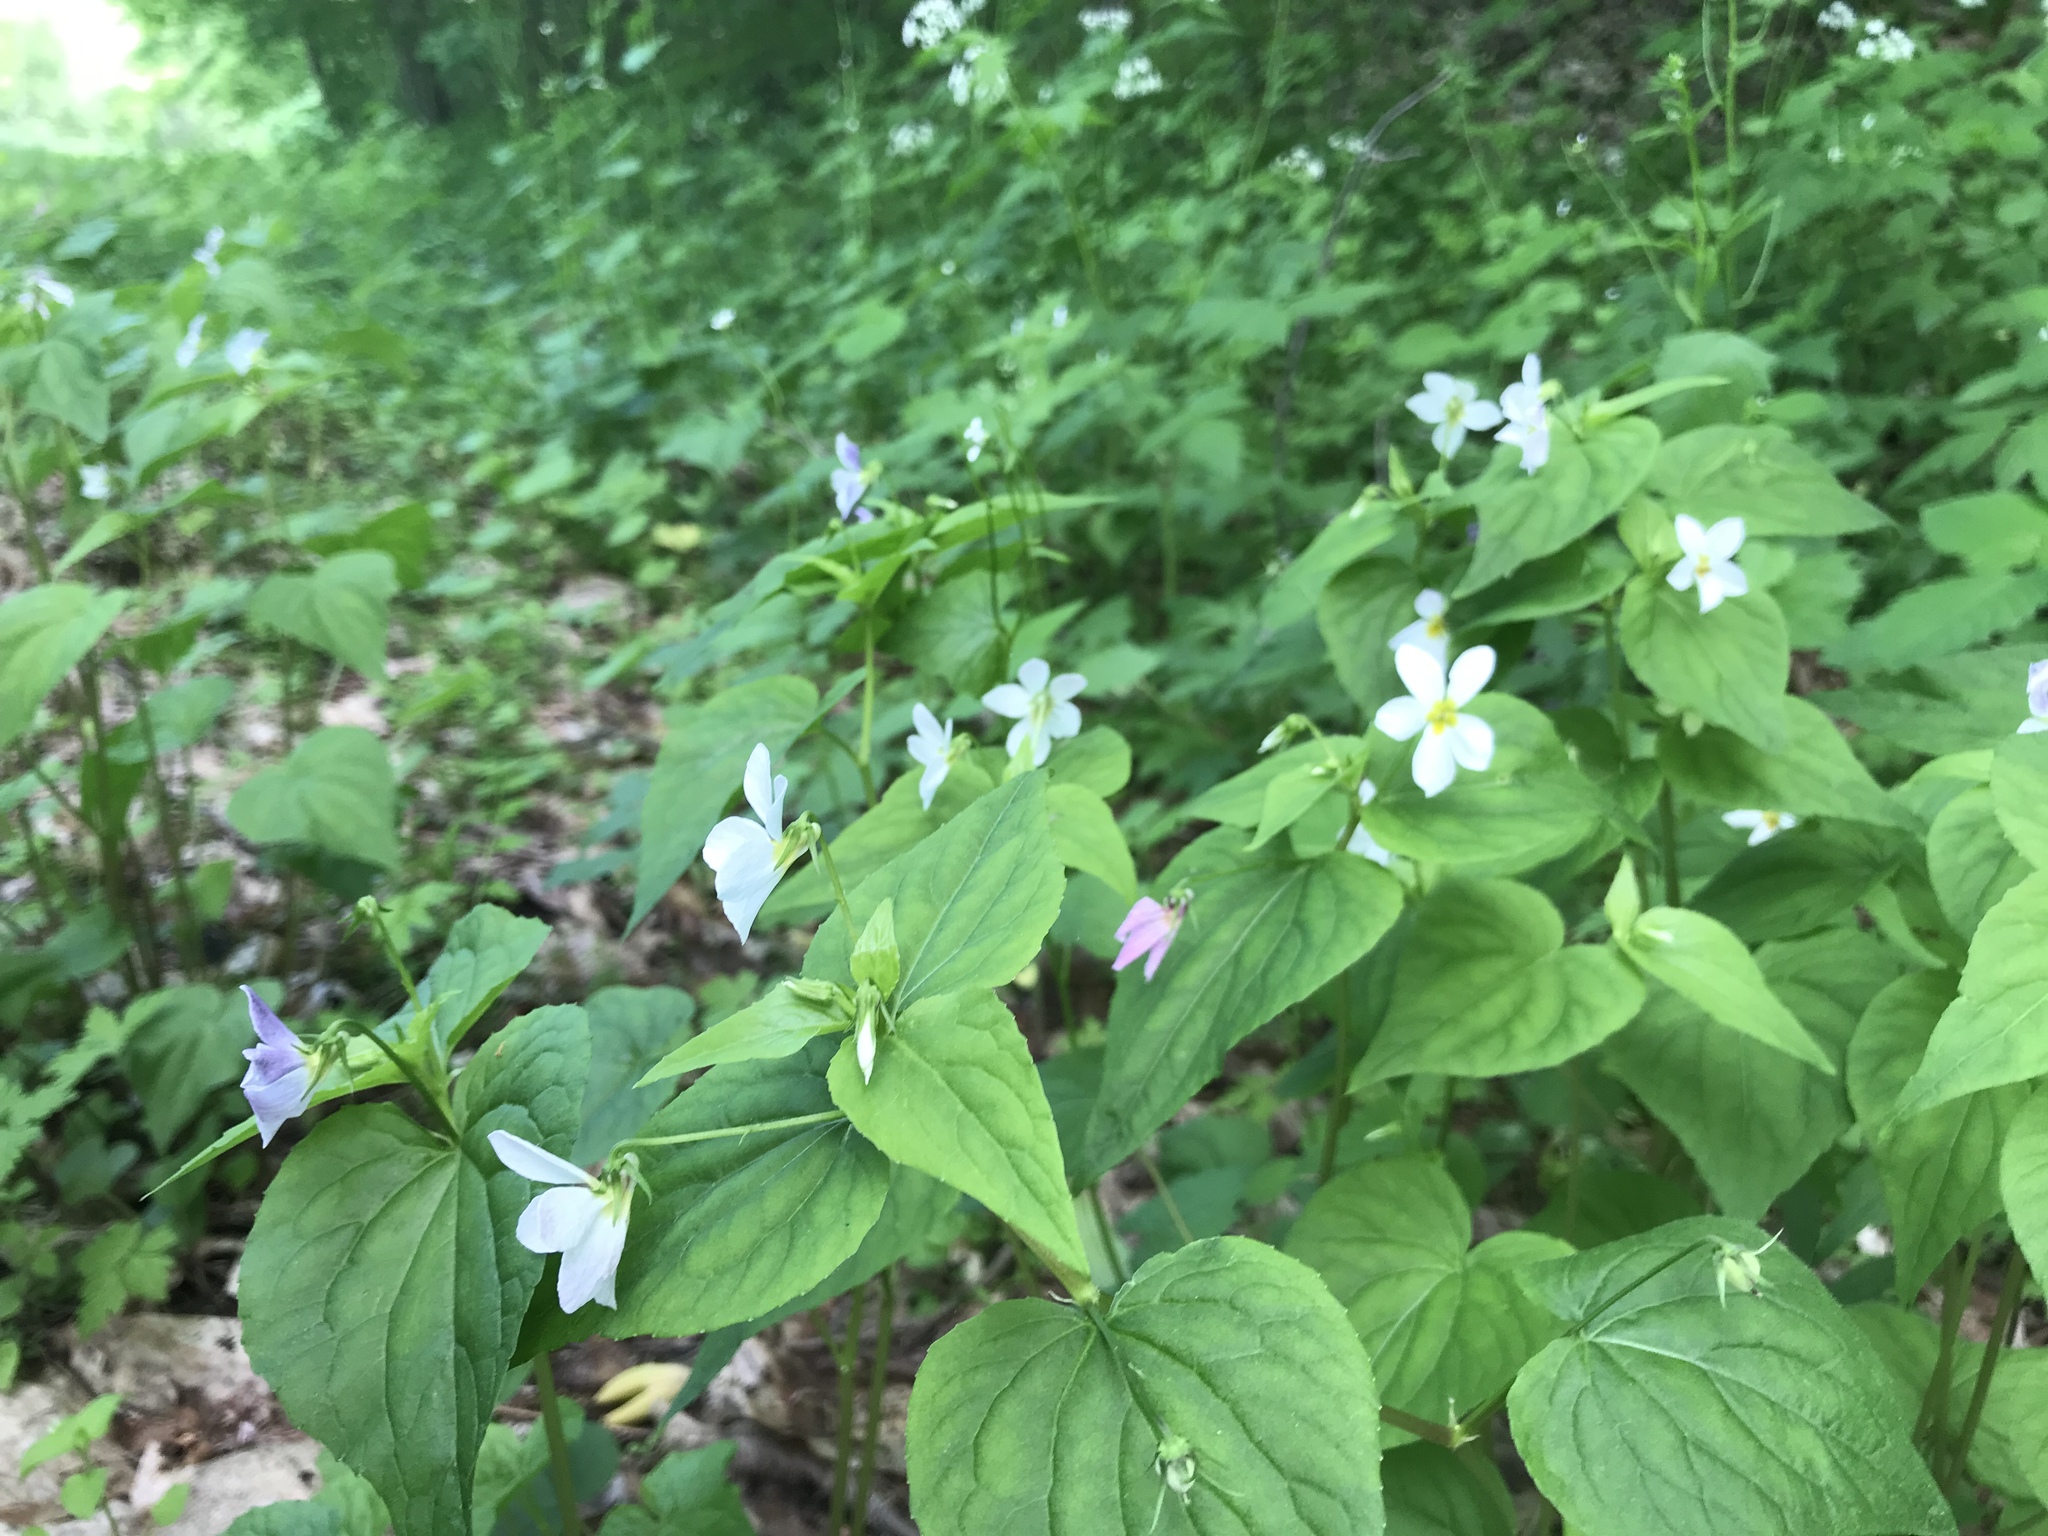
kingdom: Plantae
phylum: Tracheophyta
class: Magnoliopsida
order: Malpighiales
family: Violaceae
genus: Viola
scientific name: Viola canadensis
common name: Canada violet
